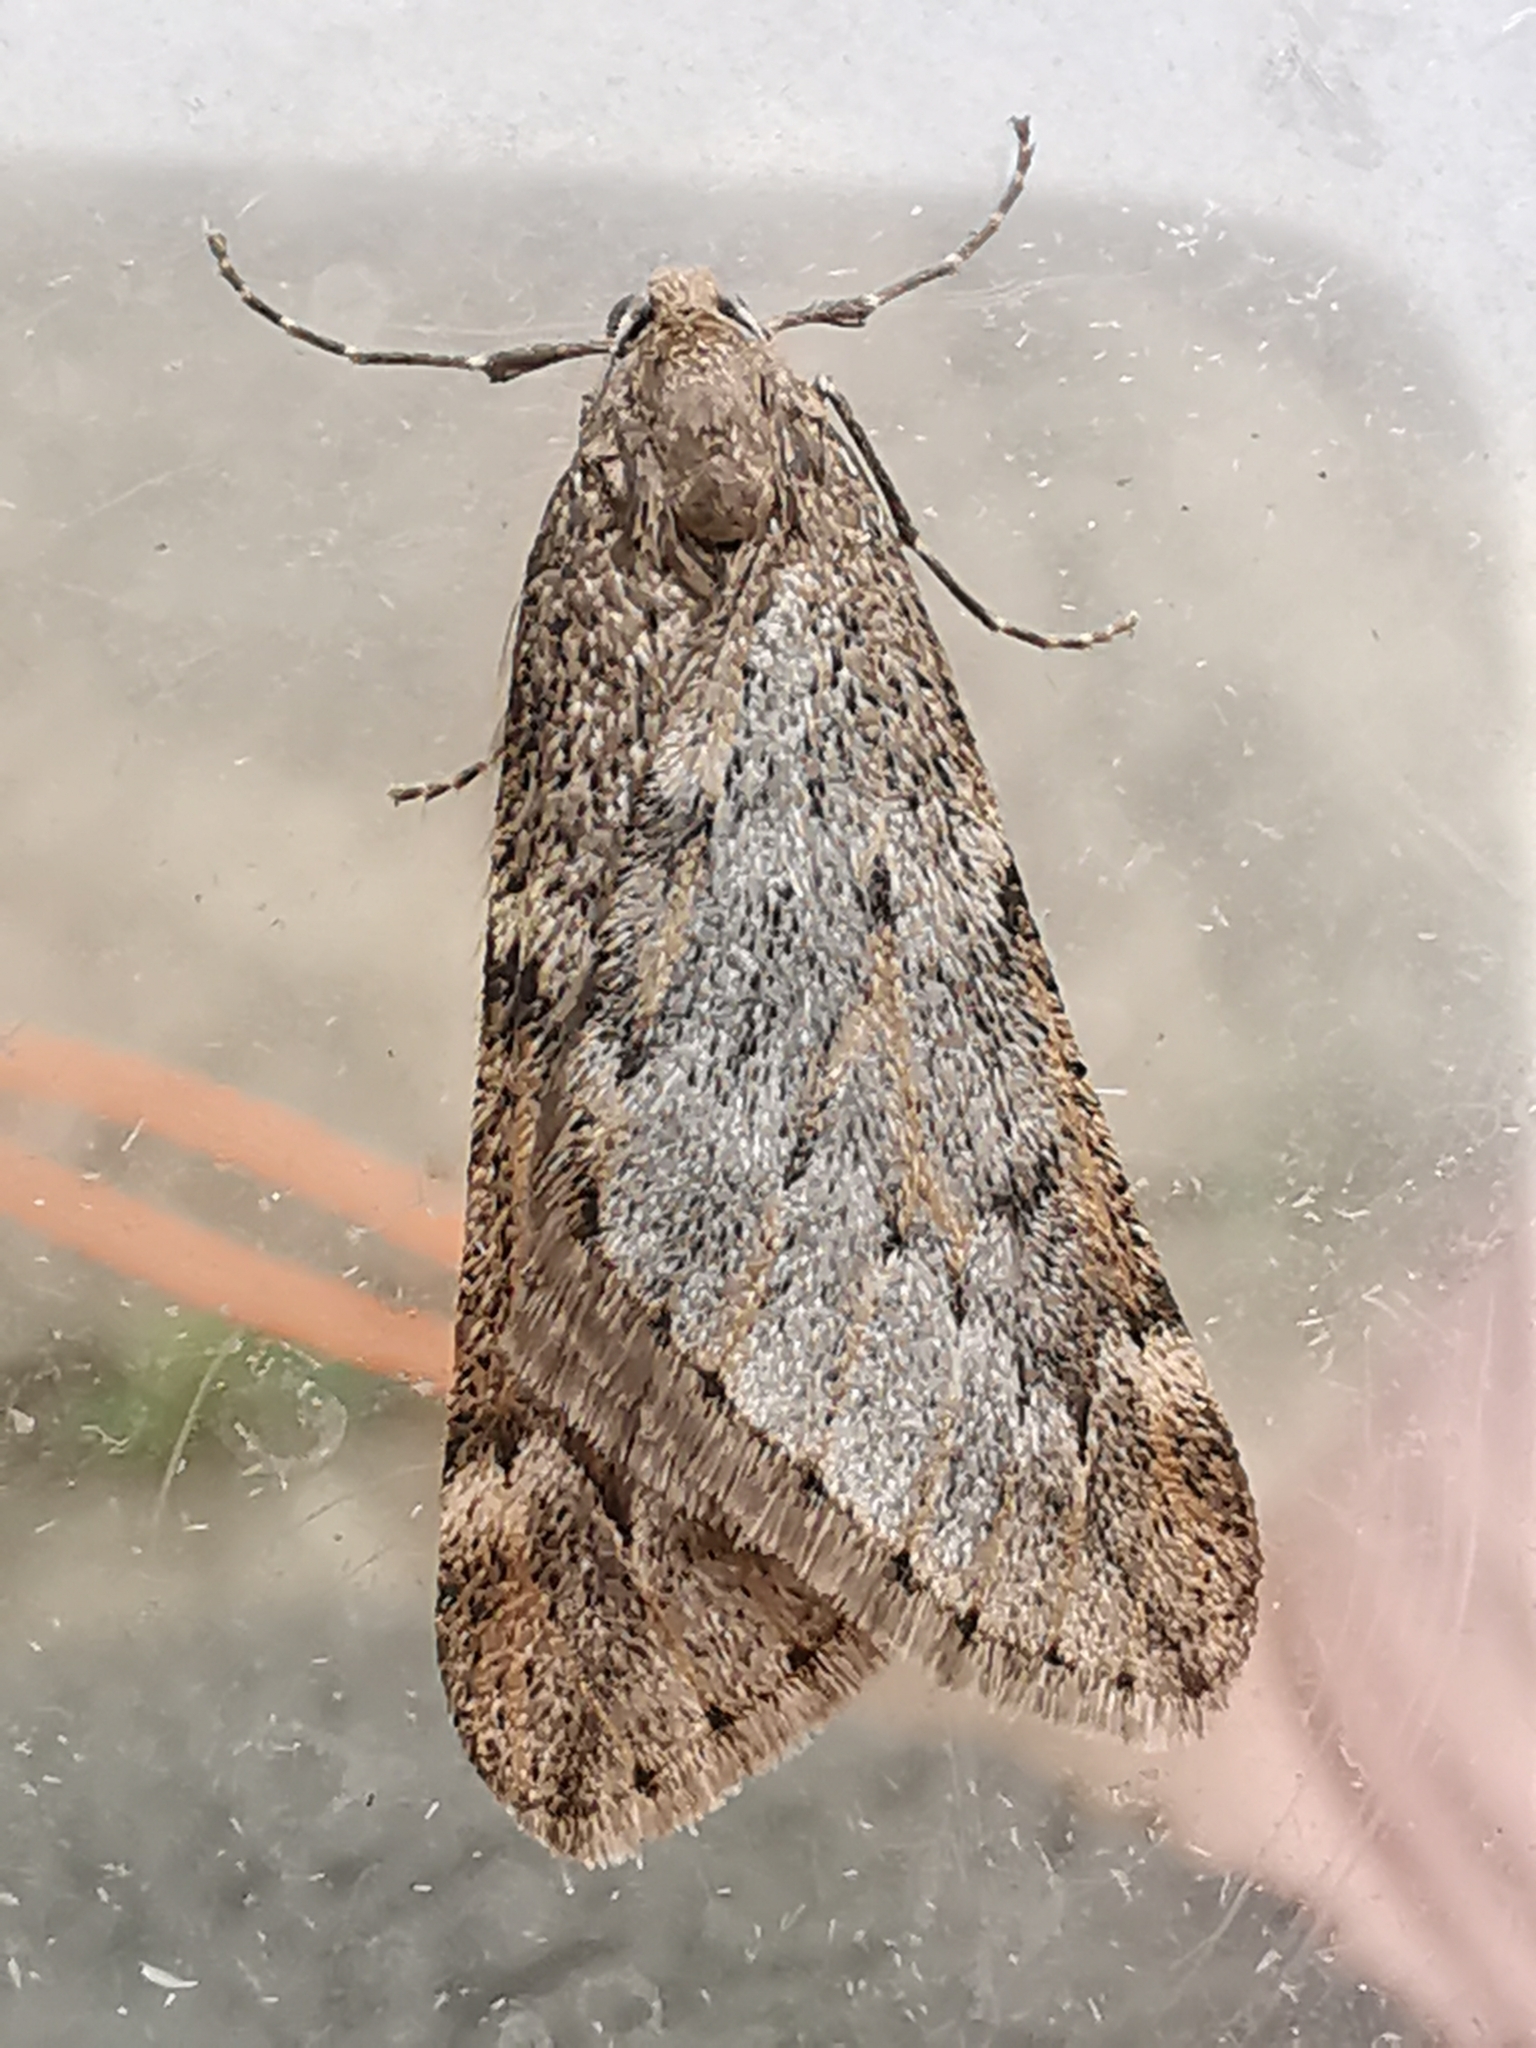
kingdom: Animalia
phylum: Arthropoda
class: Insecta
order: Lepidoptera
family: Geometridae
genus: Alsophila
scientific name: Alsophila aescularia
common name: March moth
